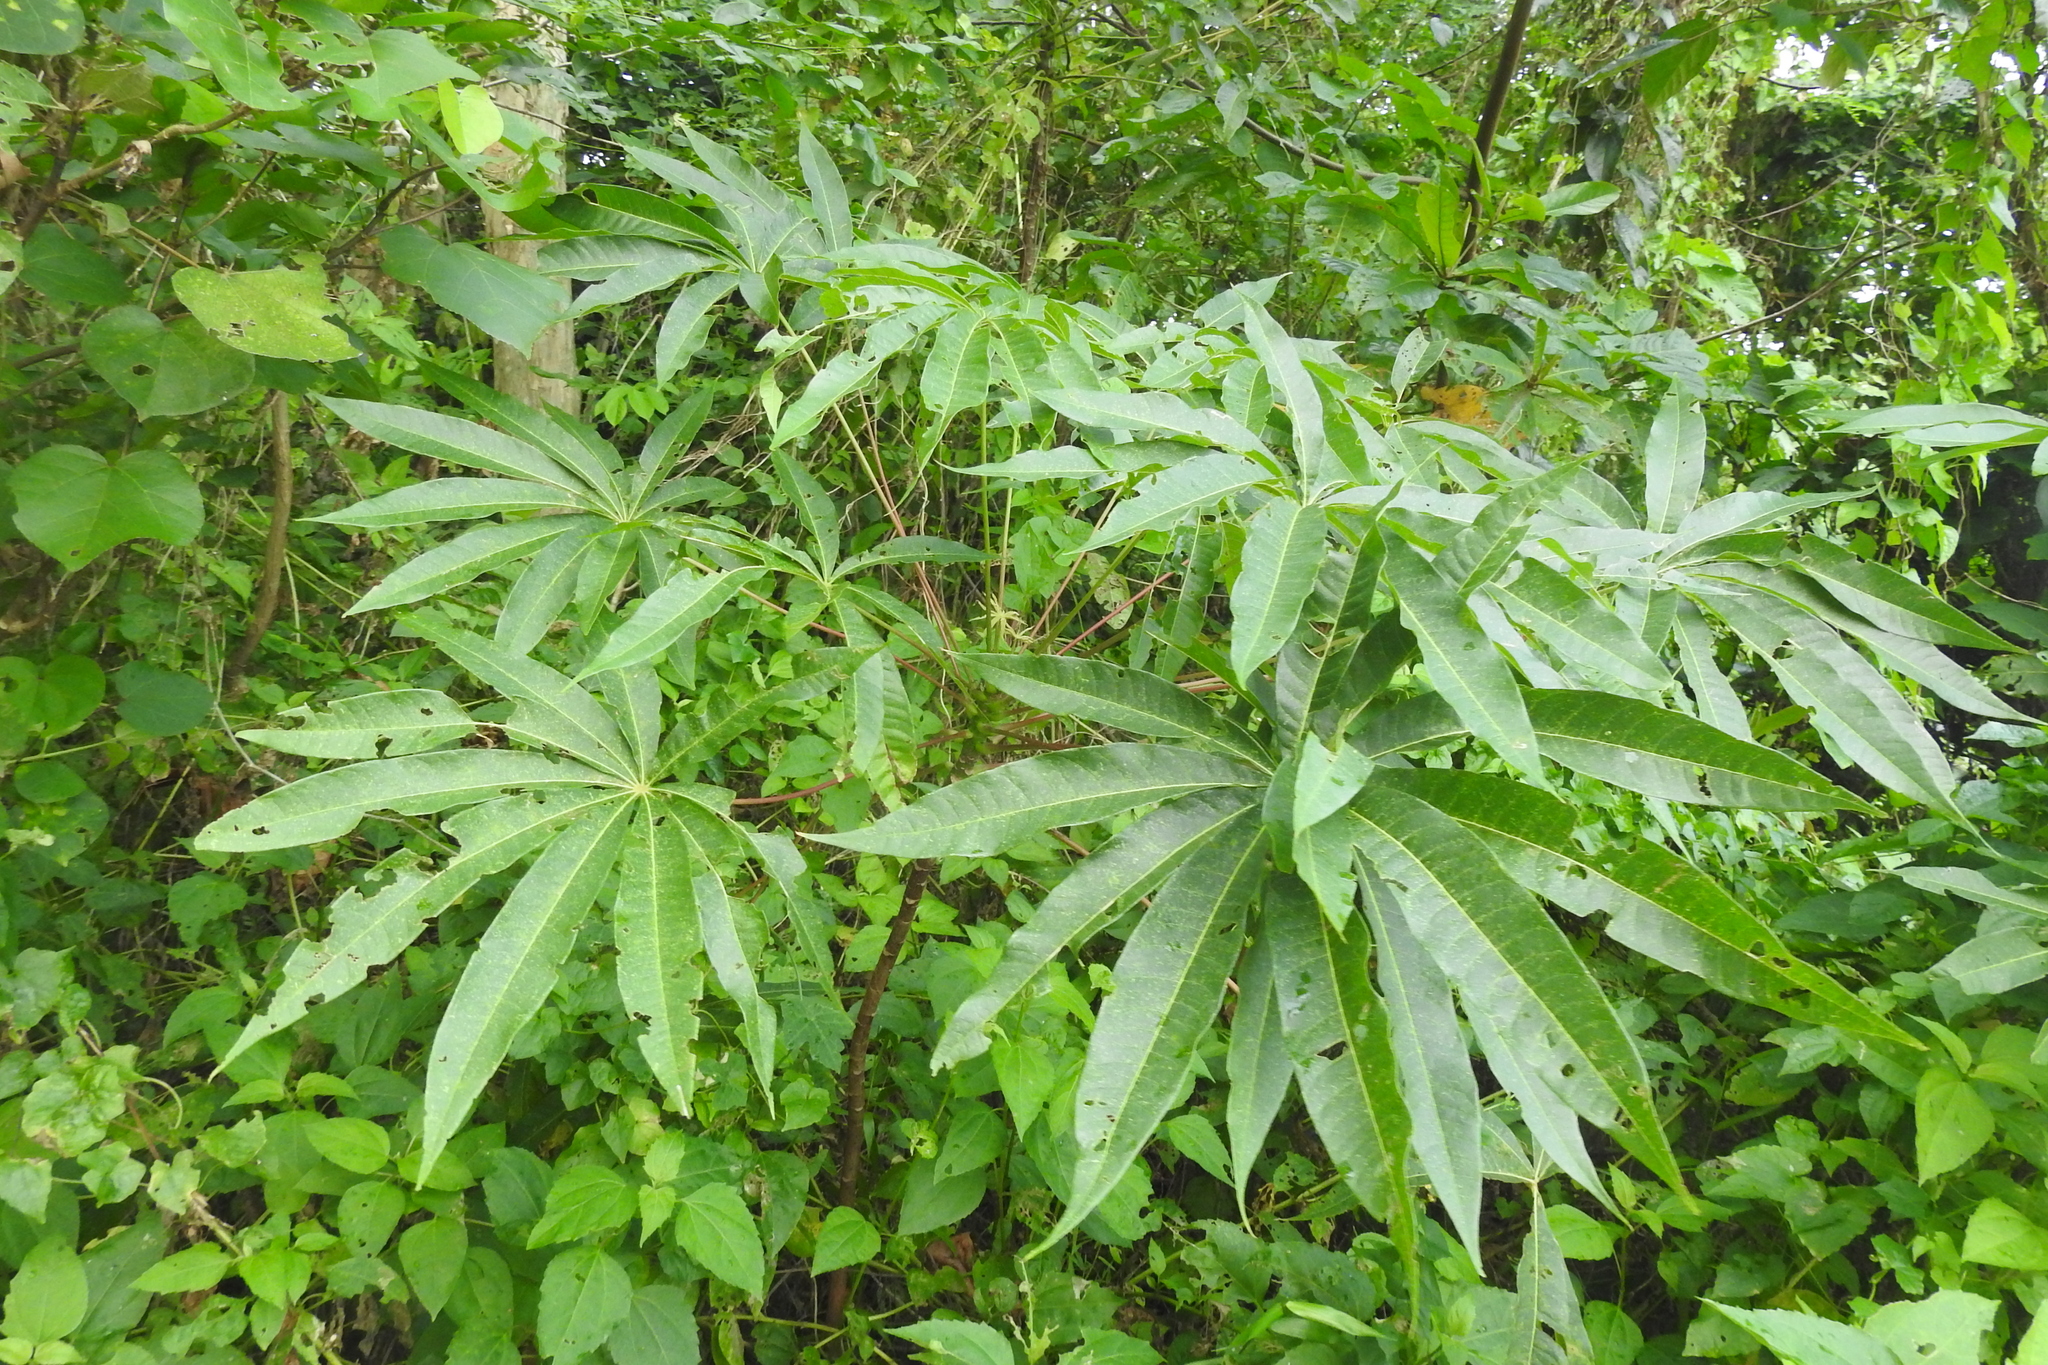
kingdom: Plantae
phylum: Tracheophyta
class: Magnoliopsida
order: Malvales
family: Malvaceae
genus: Sterculia
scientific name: Sterculia foetida
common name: Hazel sterculia
